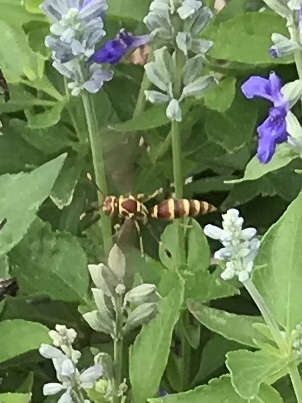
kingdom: Animalia
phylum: Arthropoda
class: Insecta
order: Hymenoptera
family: Eumenidae
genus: Polistes
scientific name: Polistes exclamans
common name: Paper wasp
